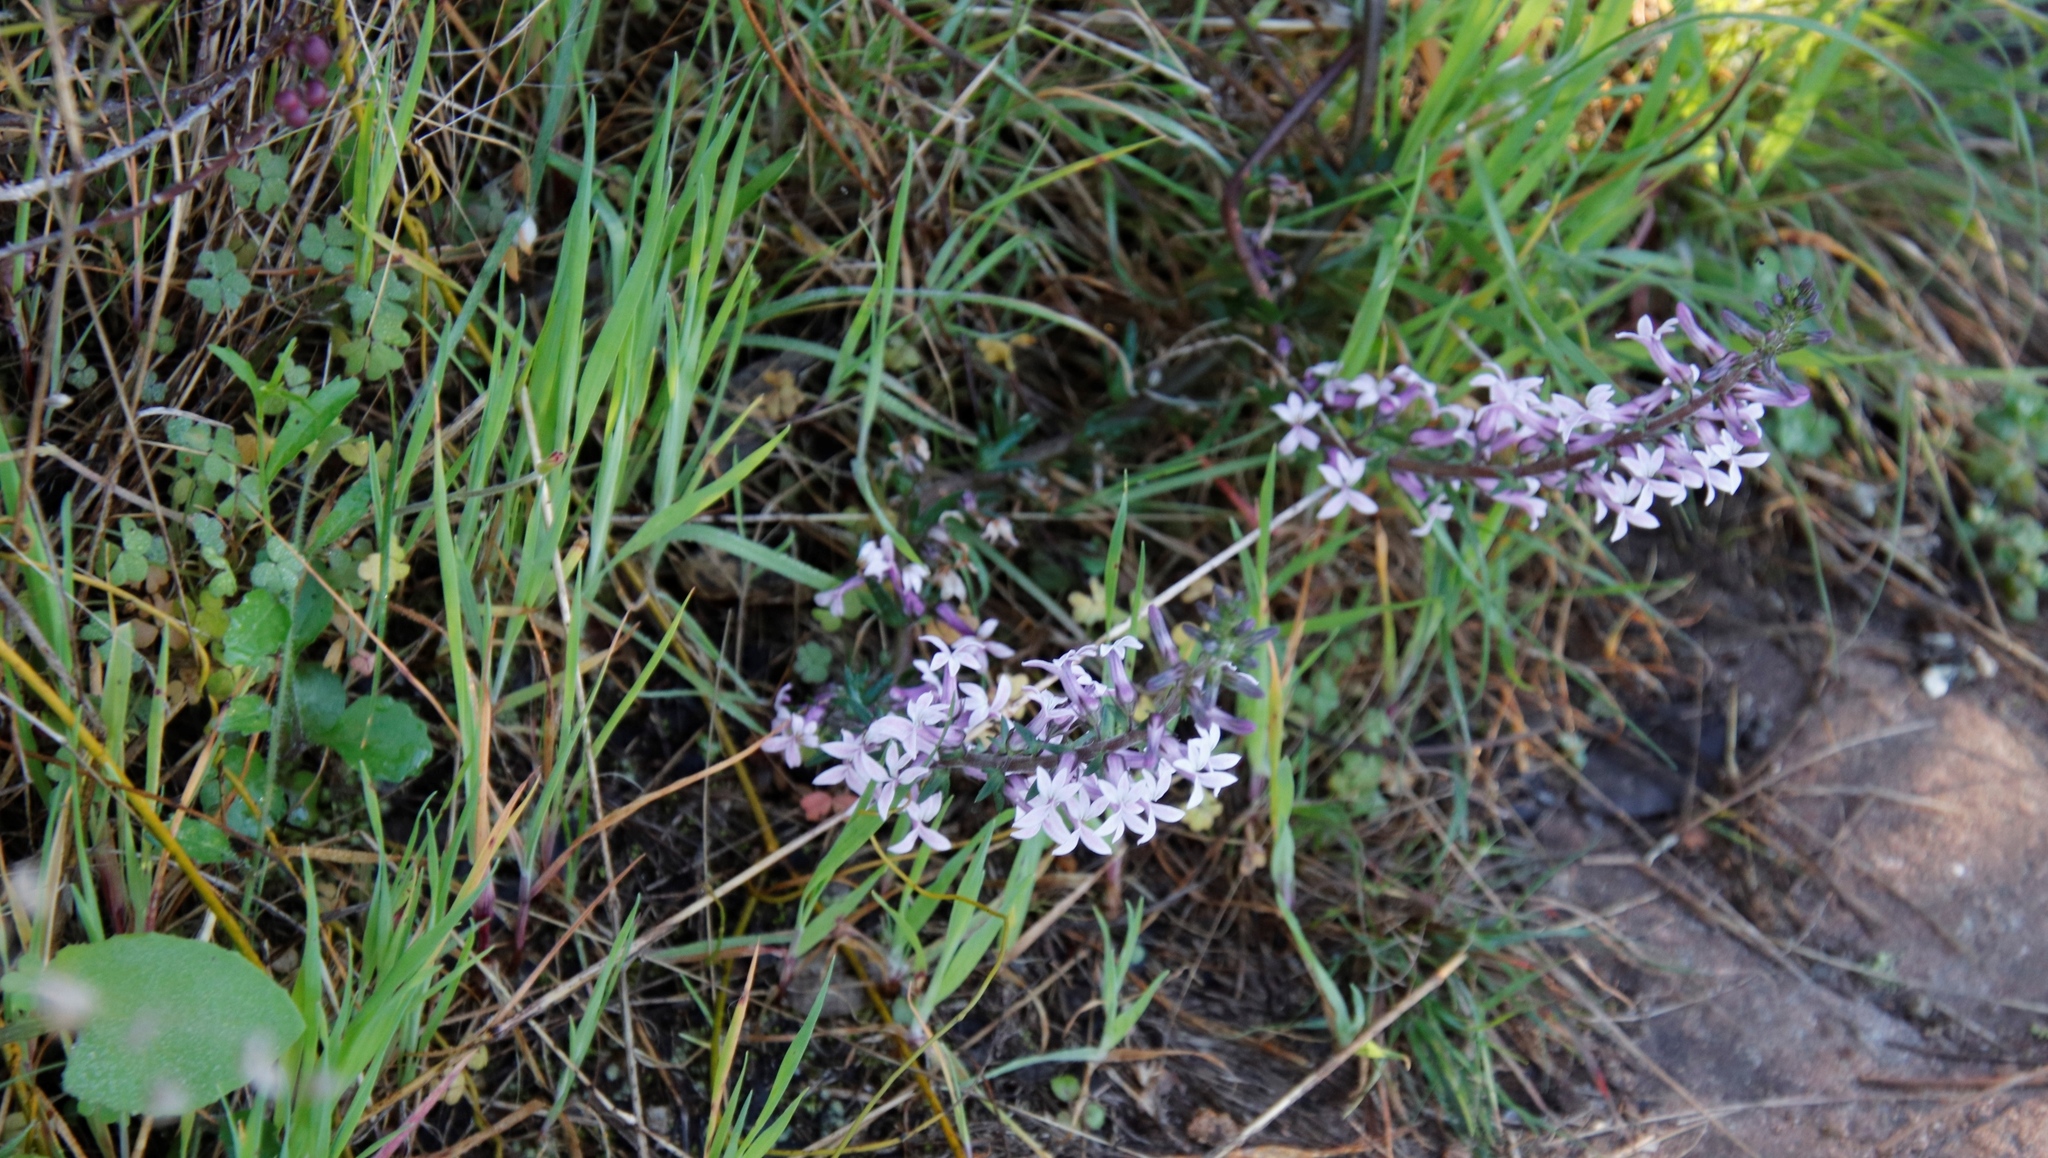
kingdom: Plantae
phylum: Tracheophyta
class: Magnoliopsida
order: Asterales
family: Campanulaceae
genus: Cyphia
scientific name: Cyphia bulbosa
